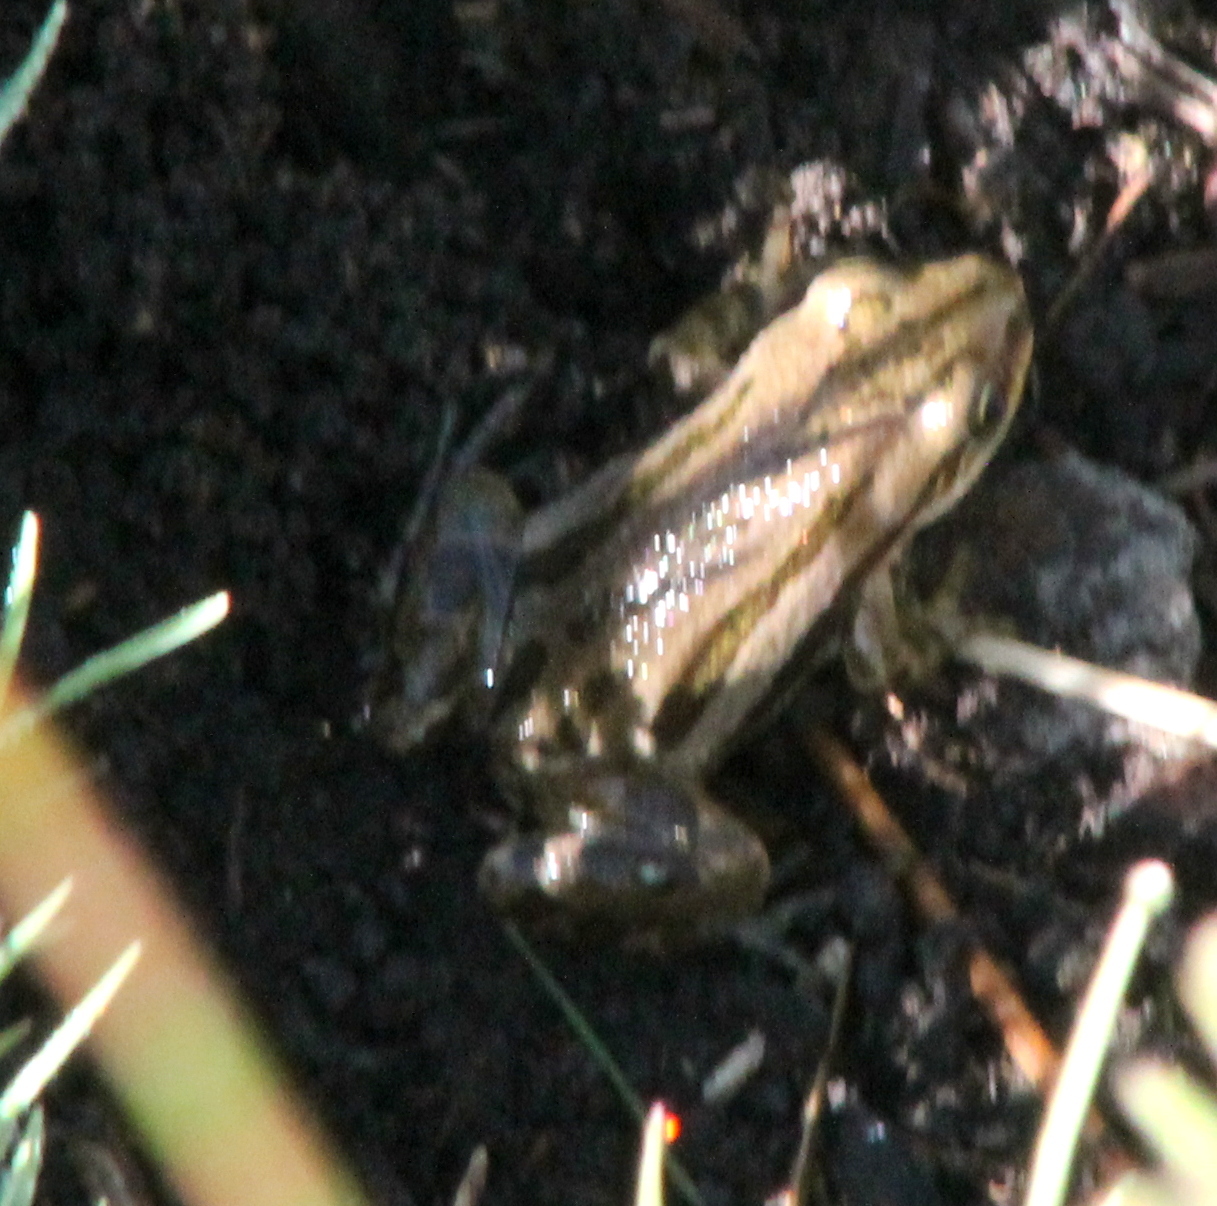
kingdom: Animalia
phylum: Chordata
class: Amphibia
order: Anura
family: Hylidae
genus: Pseudacris
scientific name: Pseudacris maculata
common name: Boreal chorus frog
